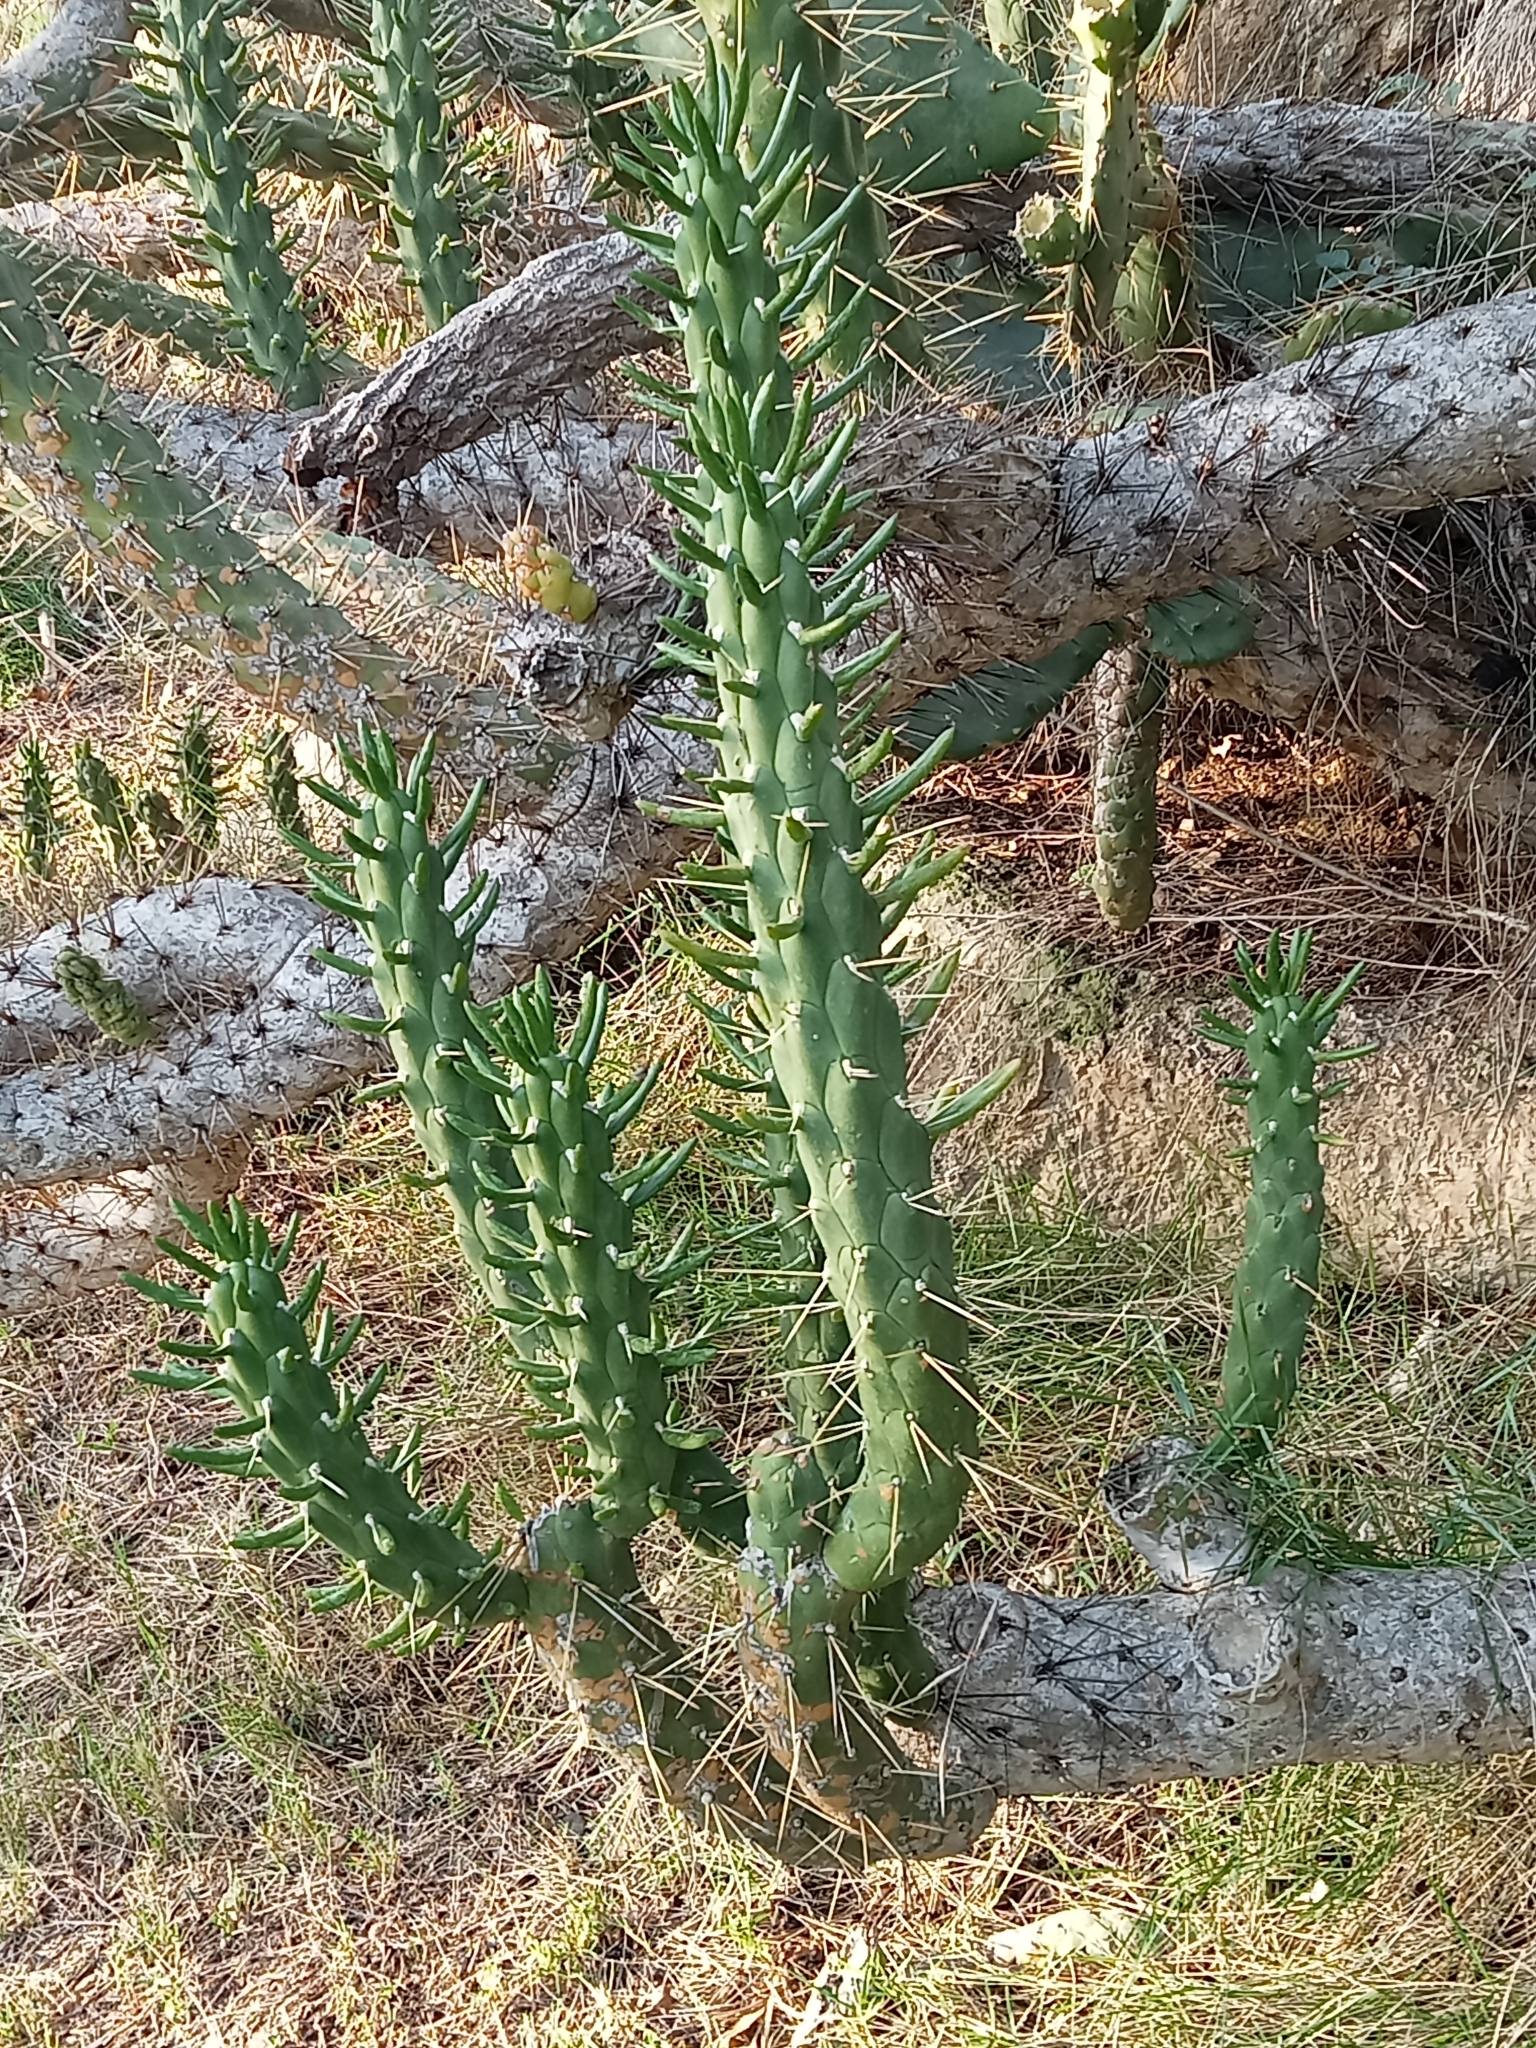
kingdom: Plantae
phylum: Tracheophyta
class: Magnoliopsida
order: Caryophyllales
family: Cactaceae
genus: Austrocylindropuntia
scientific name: Austrocylindropuntia subulata
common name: Eve's needle cactus
